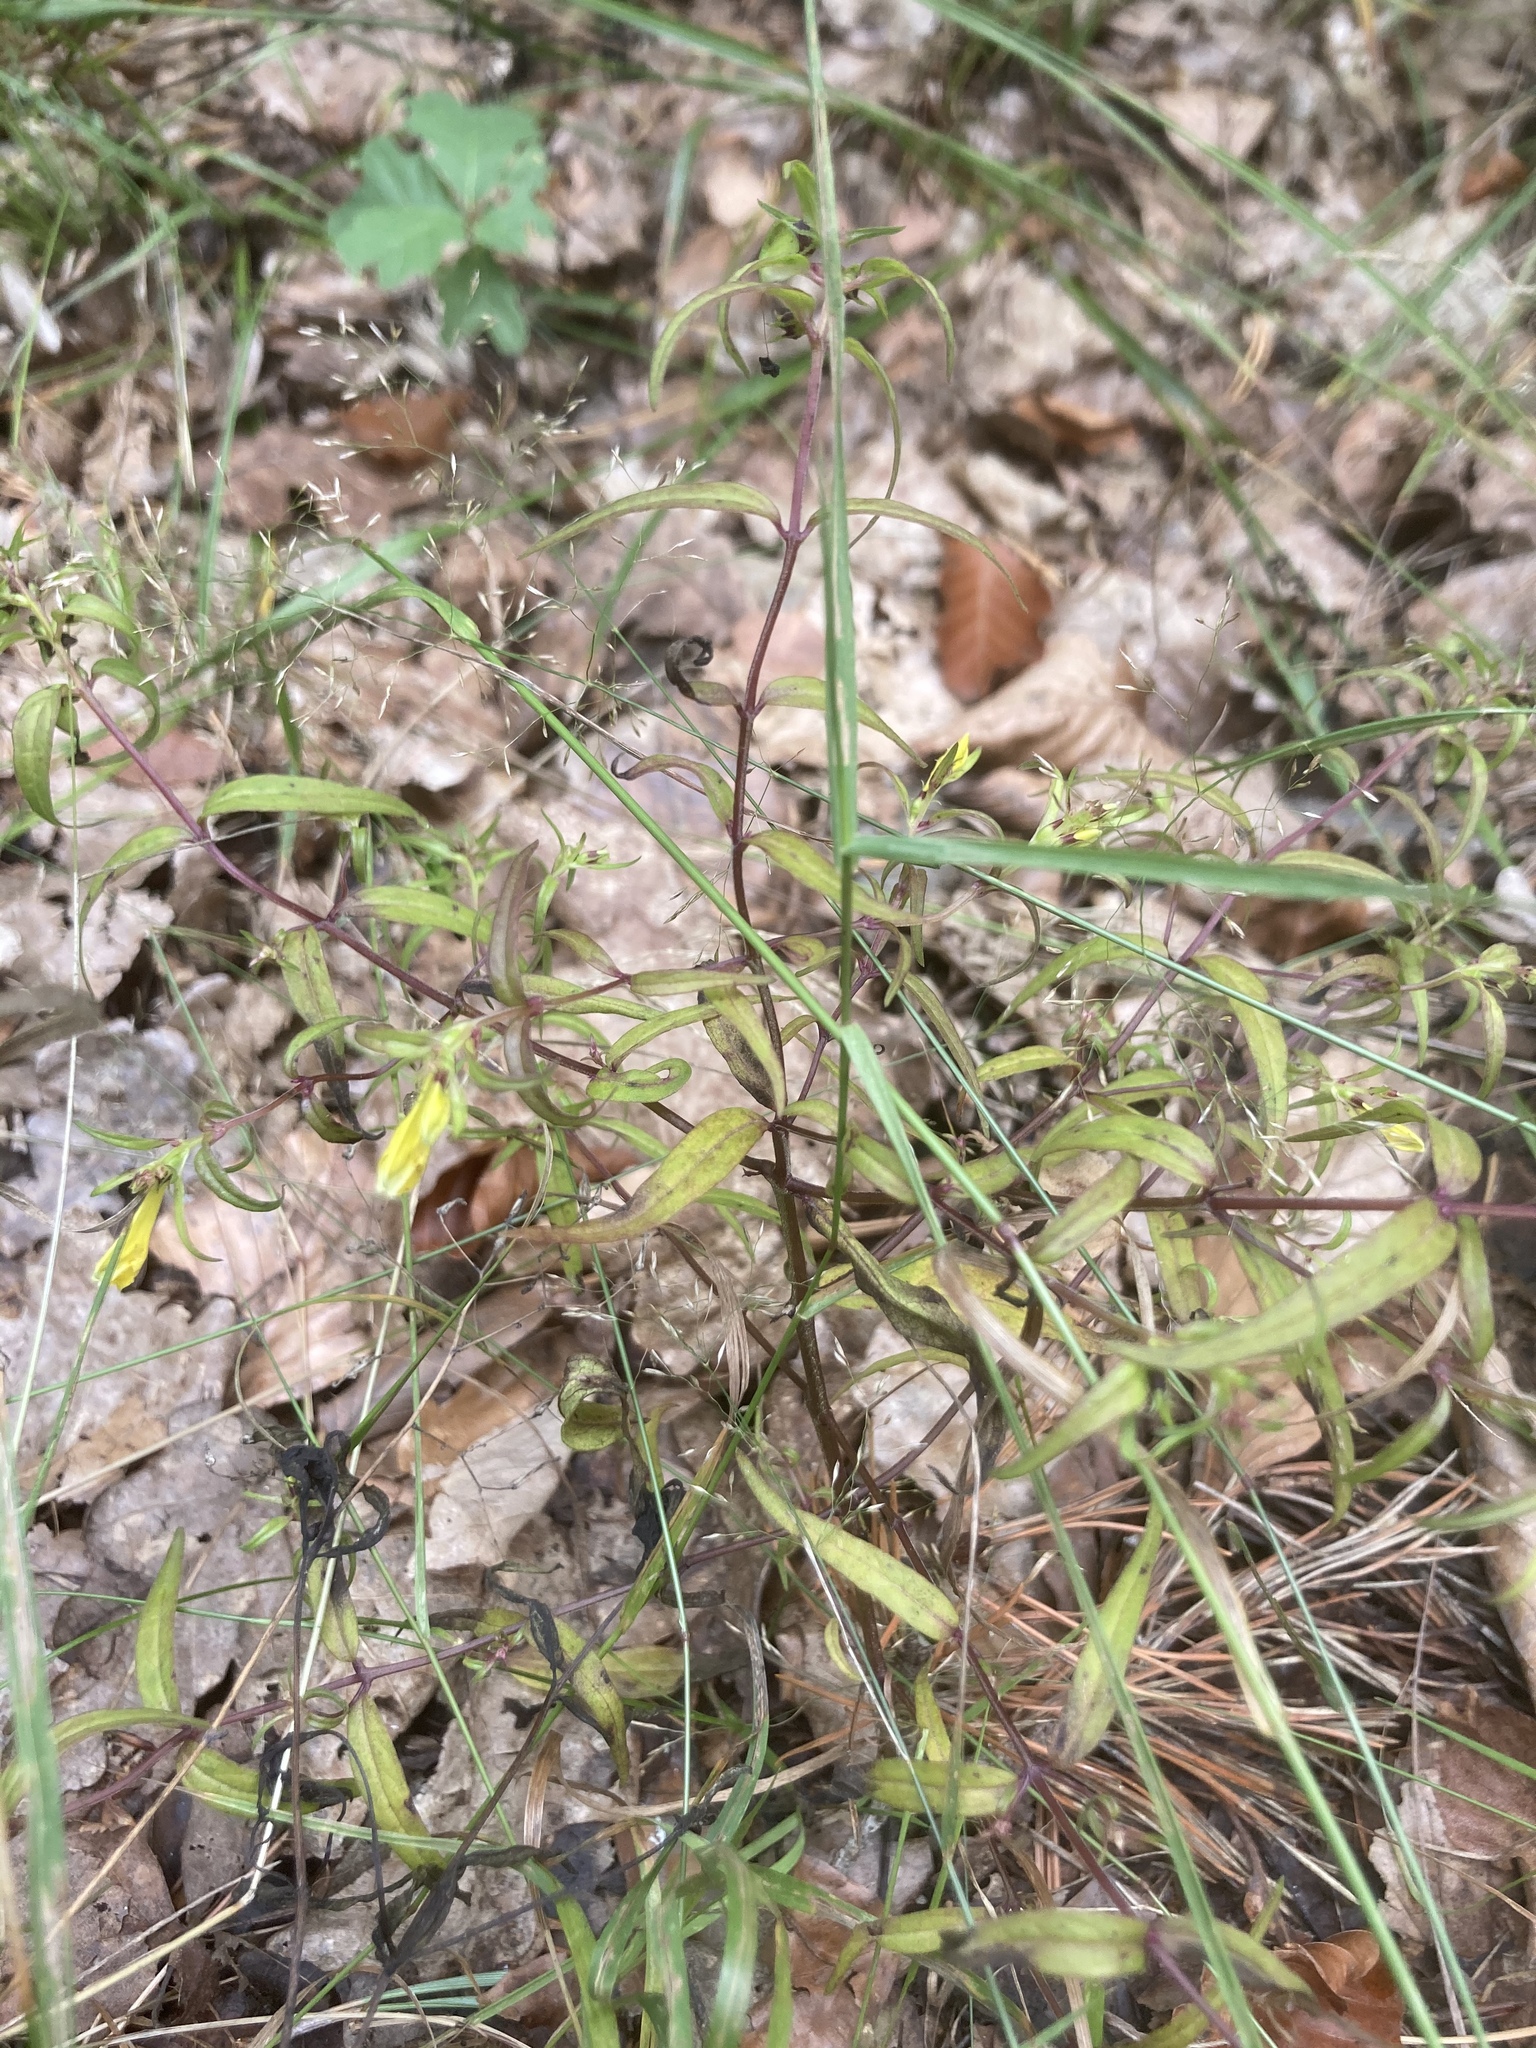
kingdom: Plantae
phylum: Tracheophyta
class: Magnoliopsida
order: Lamiales
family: Orobanchaceae
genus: Melampyrum
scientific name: Melampyrum pratense
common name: Common cow-wheat
